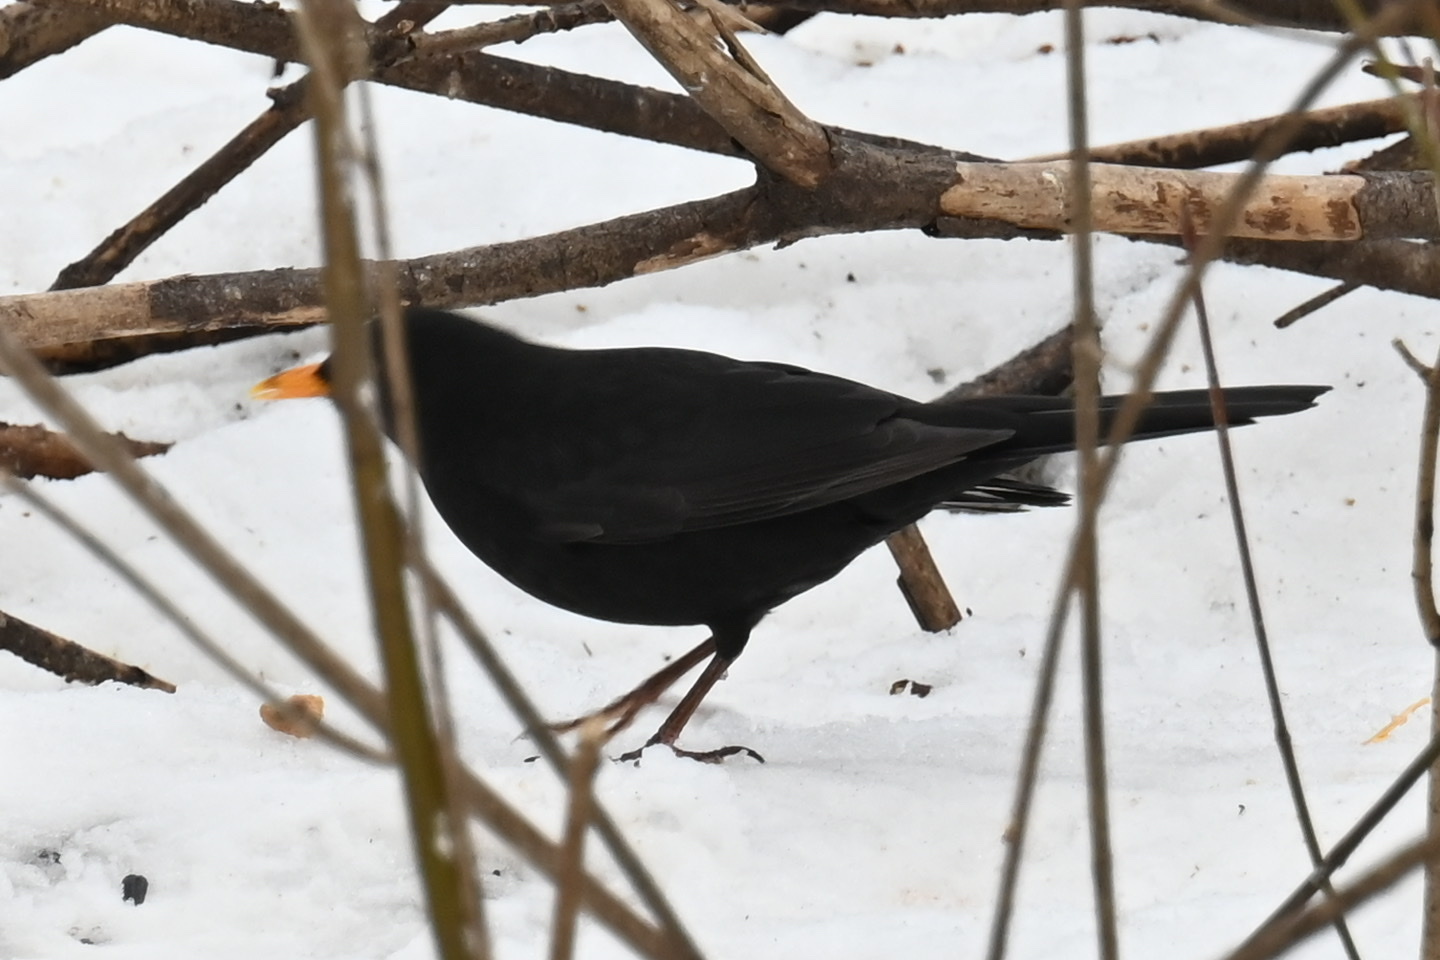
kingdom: Animalia
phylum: Chordata
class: Aves
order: Passeriformes
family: Turdidae
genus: Turdus
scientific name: Turdus merula
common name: Common blackbird
